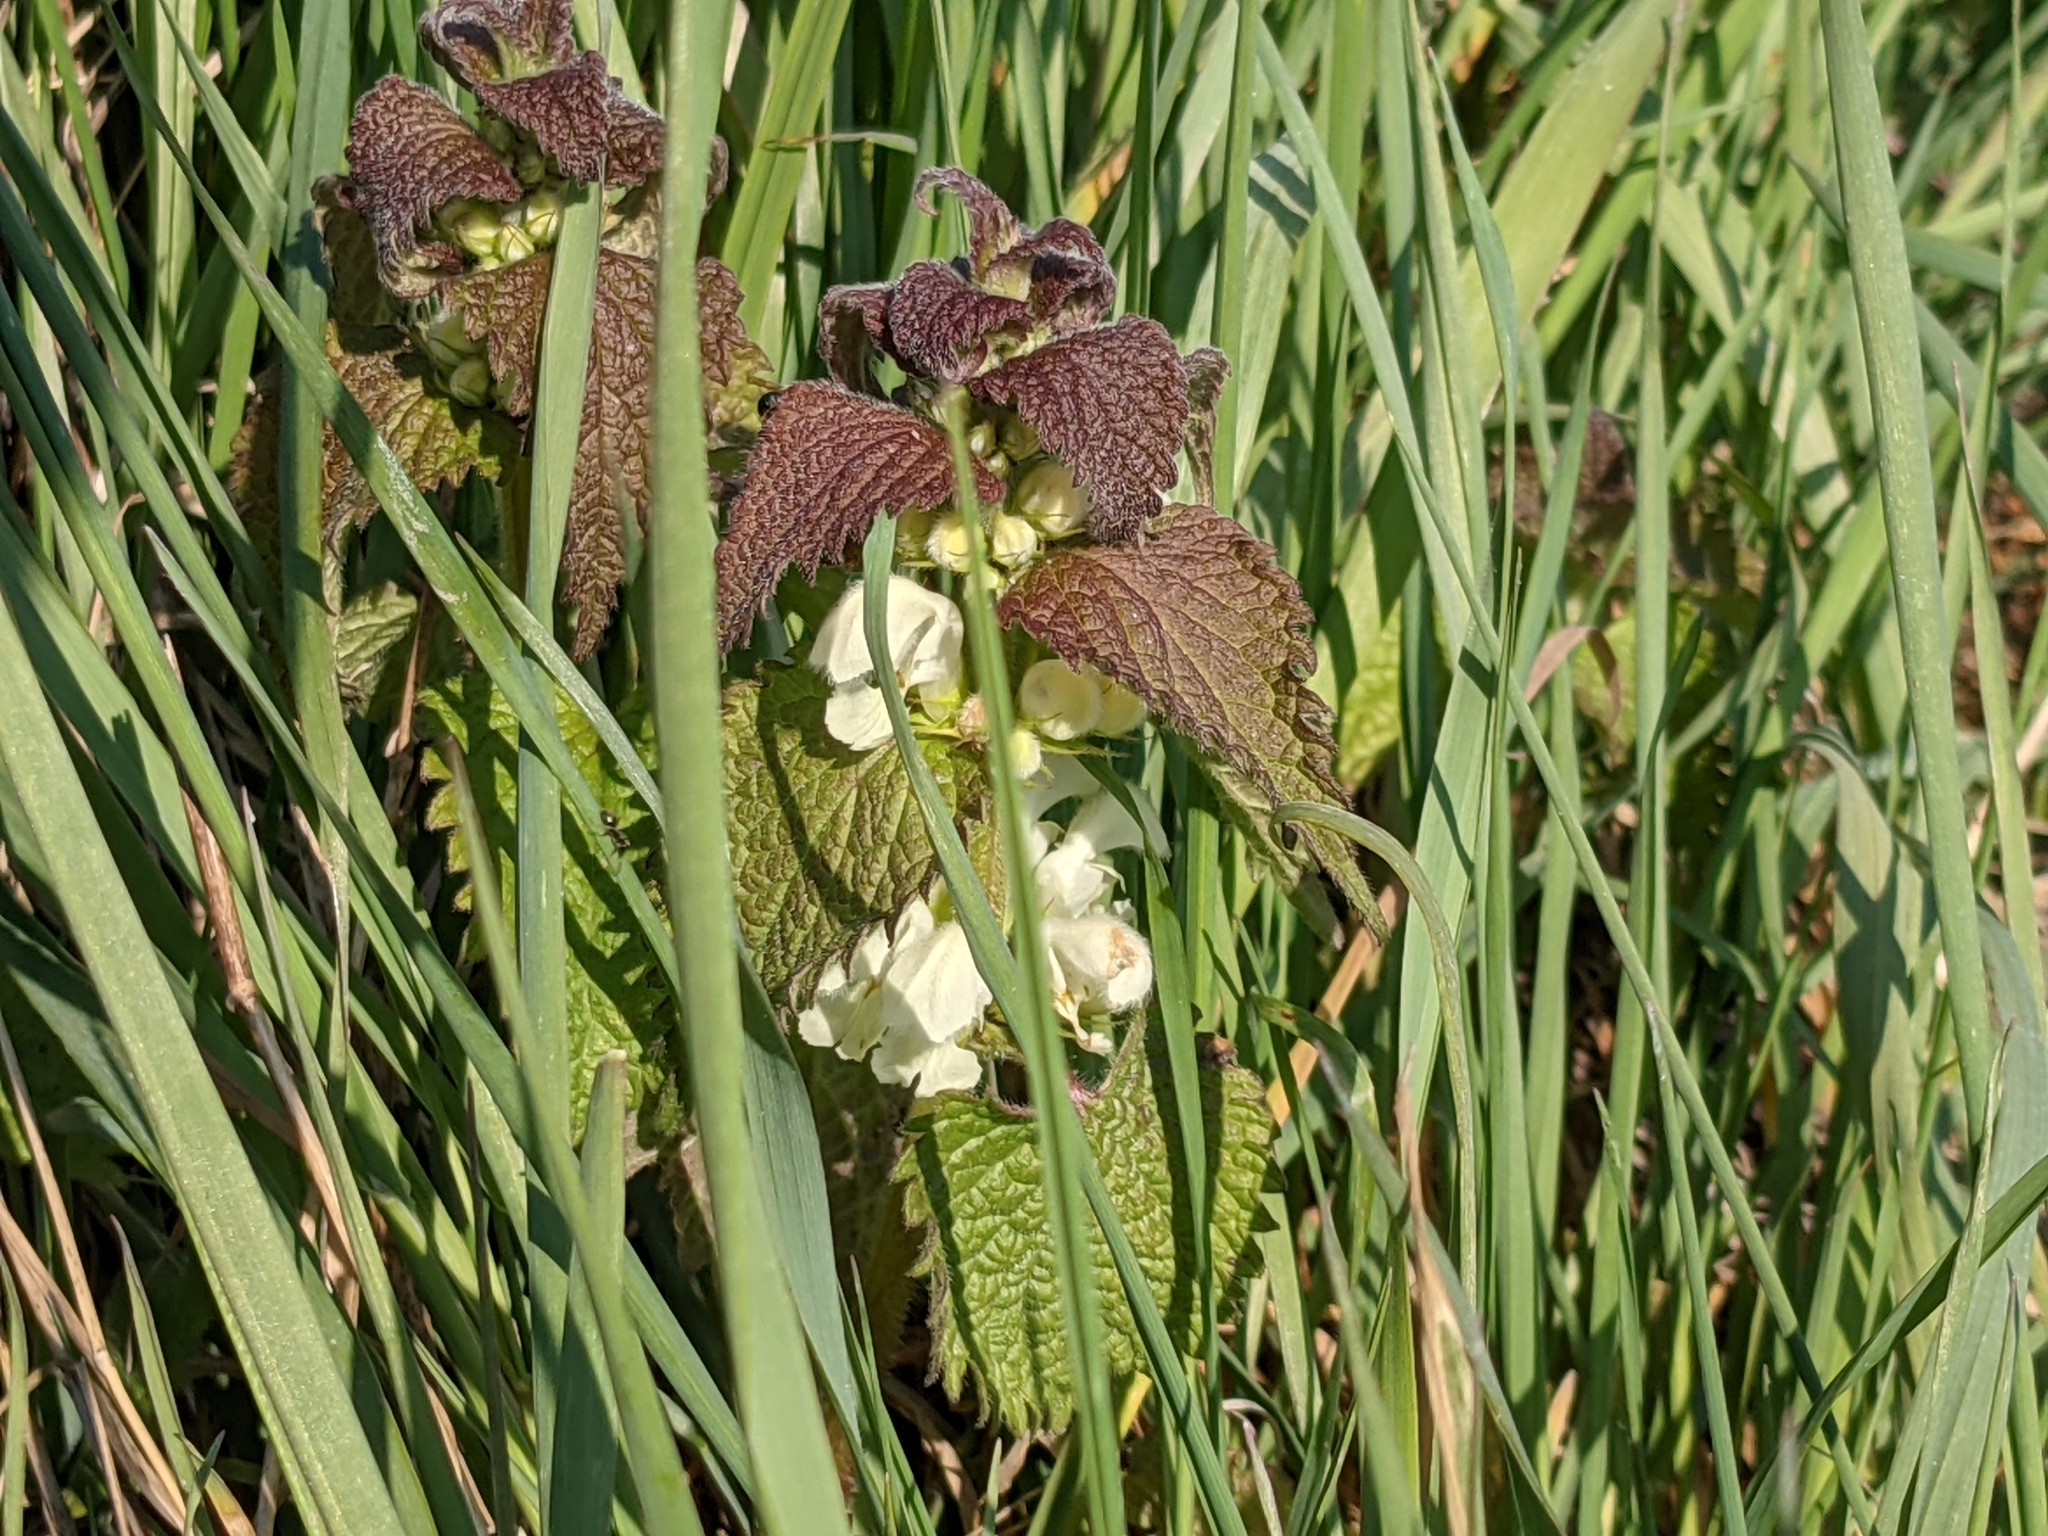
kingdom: Plantae
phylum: Tracheophyta
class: Magnoliopsida
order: Lamiales
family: Lamiaceae
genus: Lamium
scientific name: Lamium album
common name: White dead-nettle
